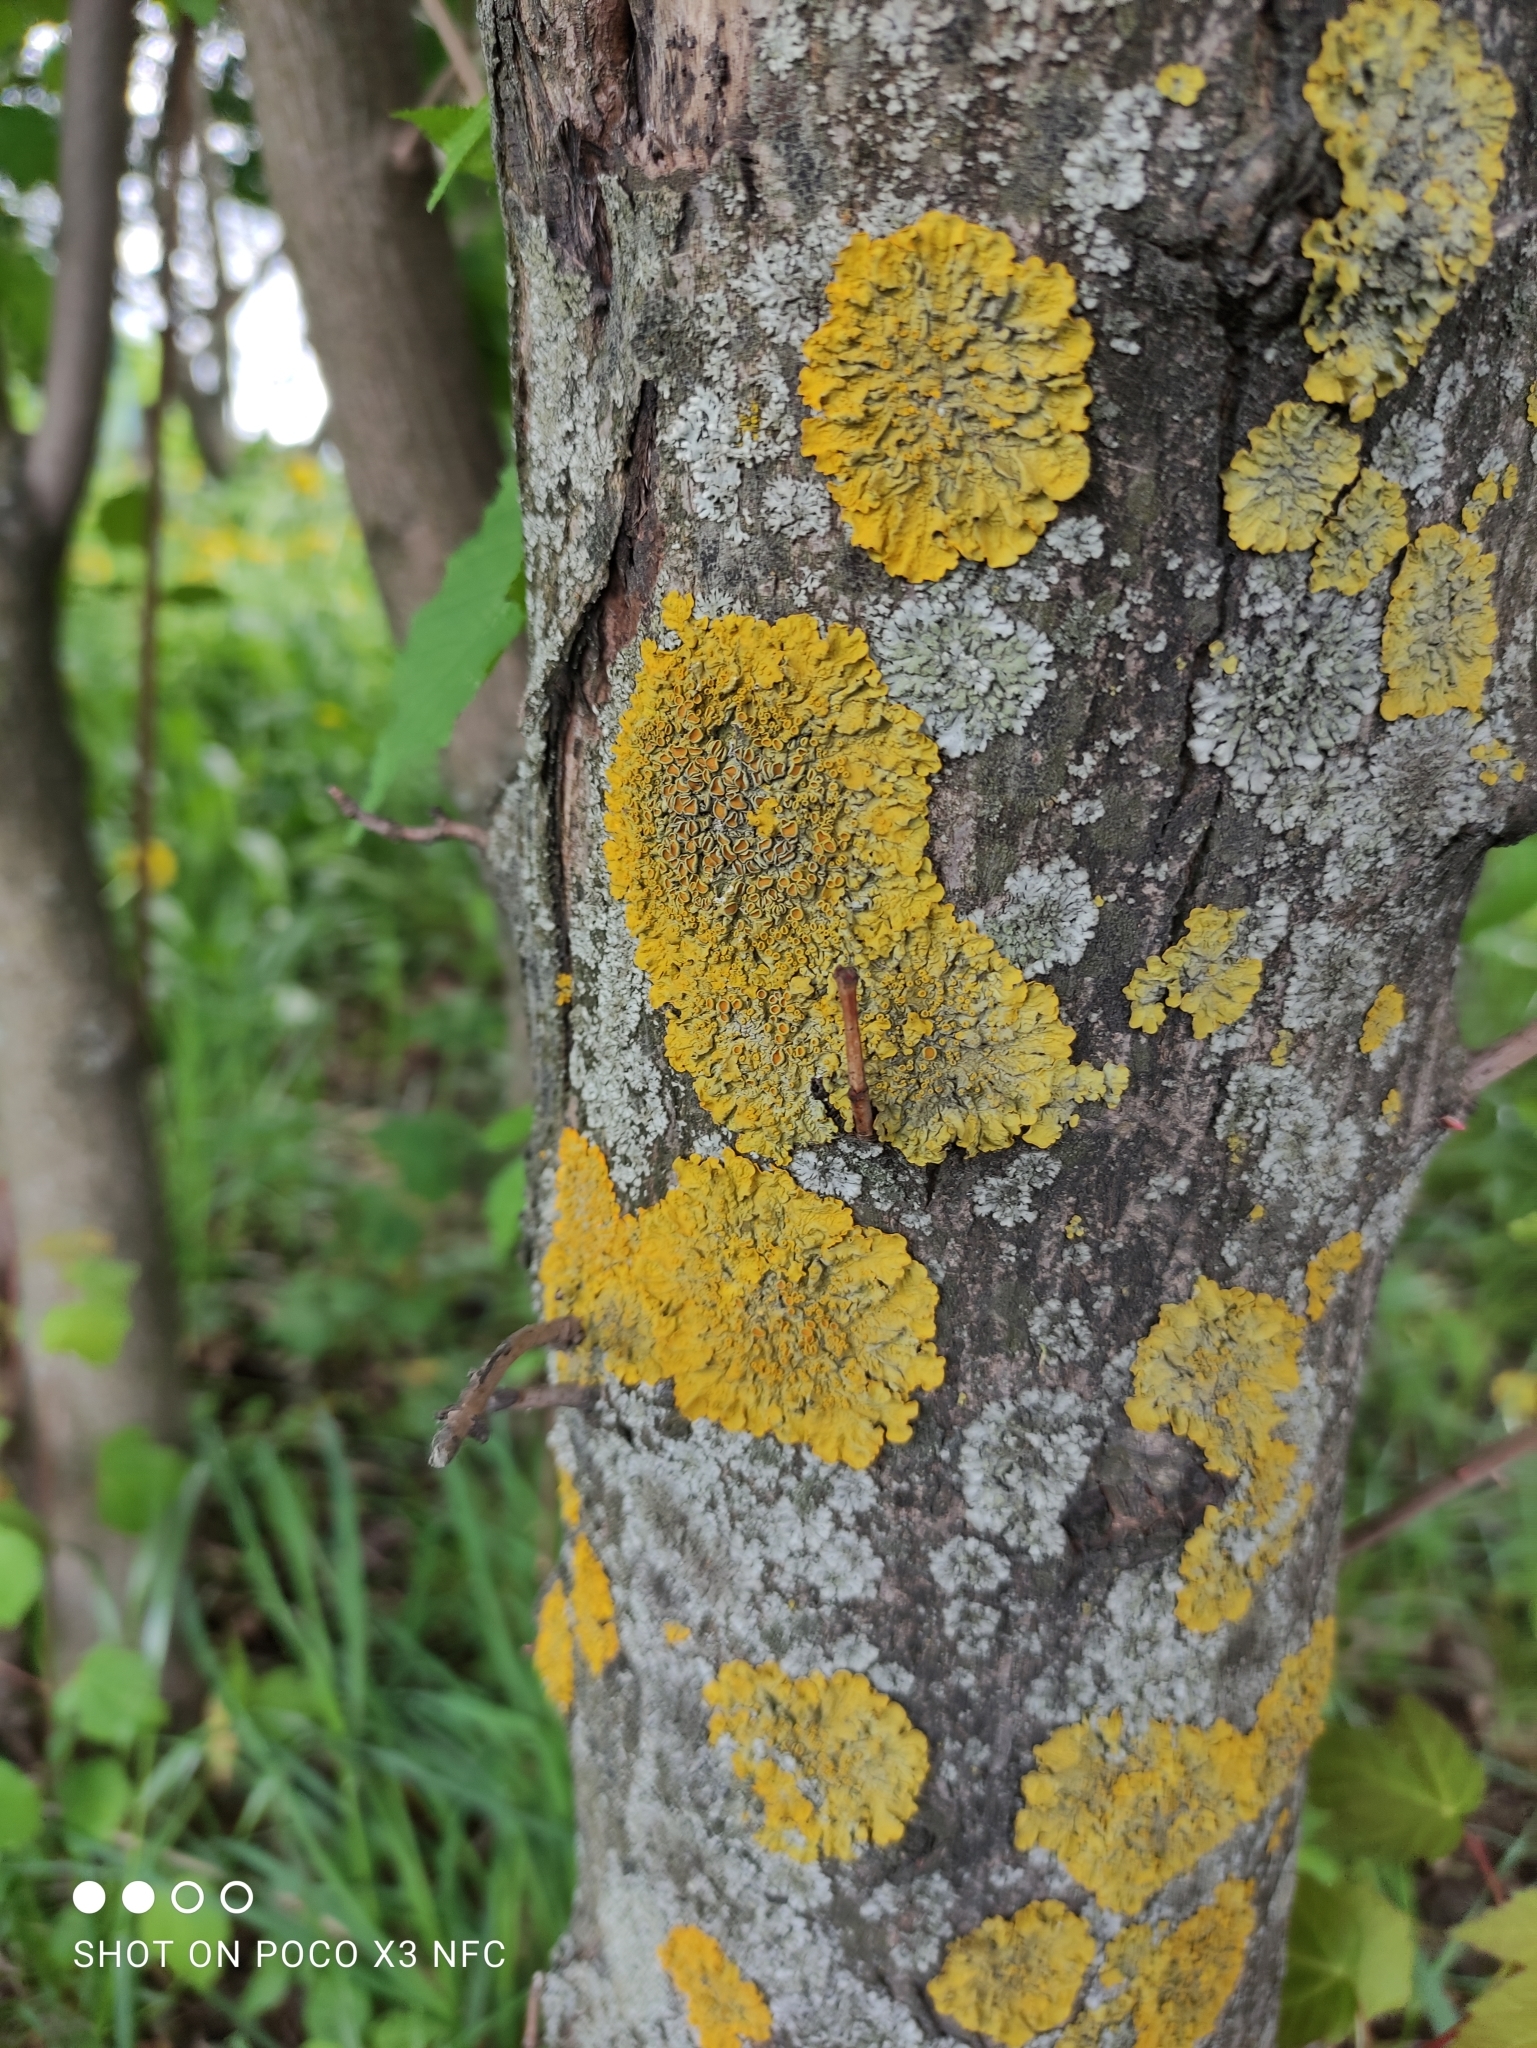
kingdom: Fungi
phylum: Ascomycota
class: Lecanoromycetes
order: Teloschistales
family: Teloschistaceae
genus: Xanthoria
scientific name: Xanthoria parietina
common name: Common orange lichen
